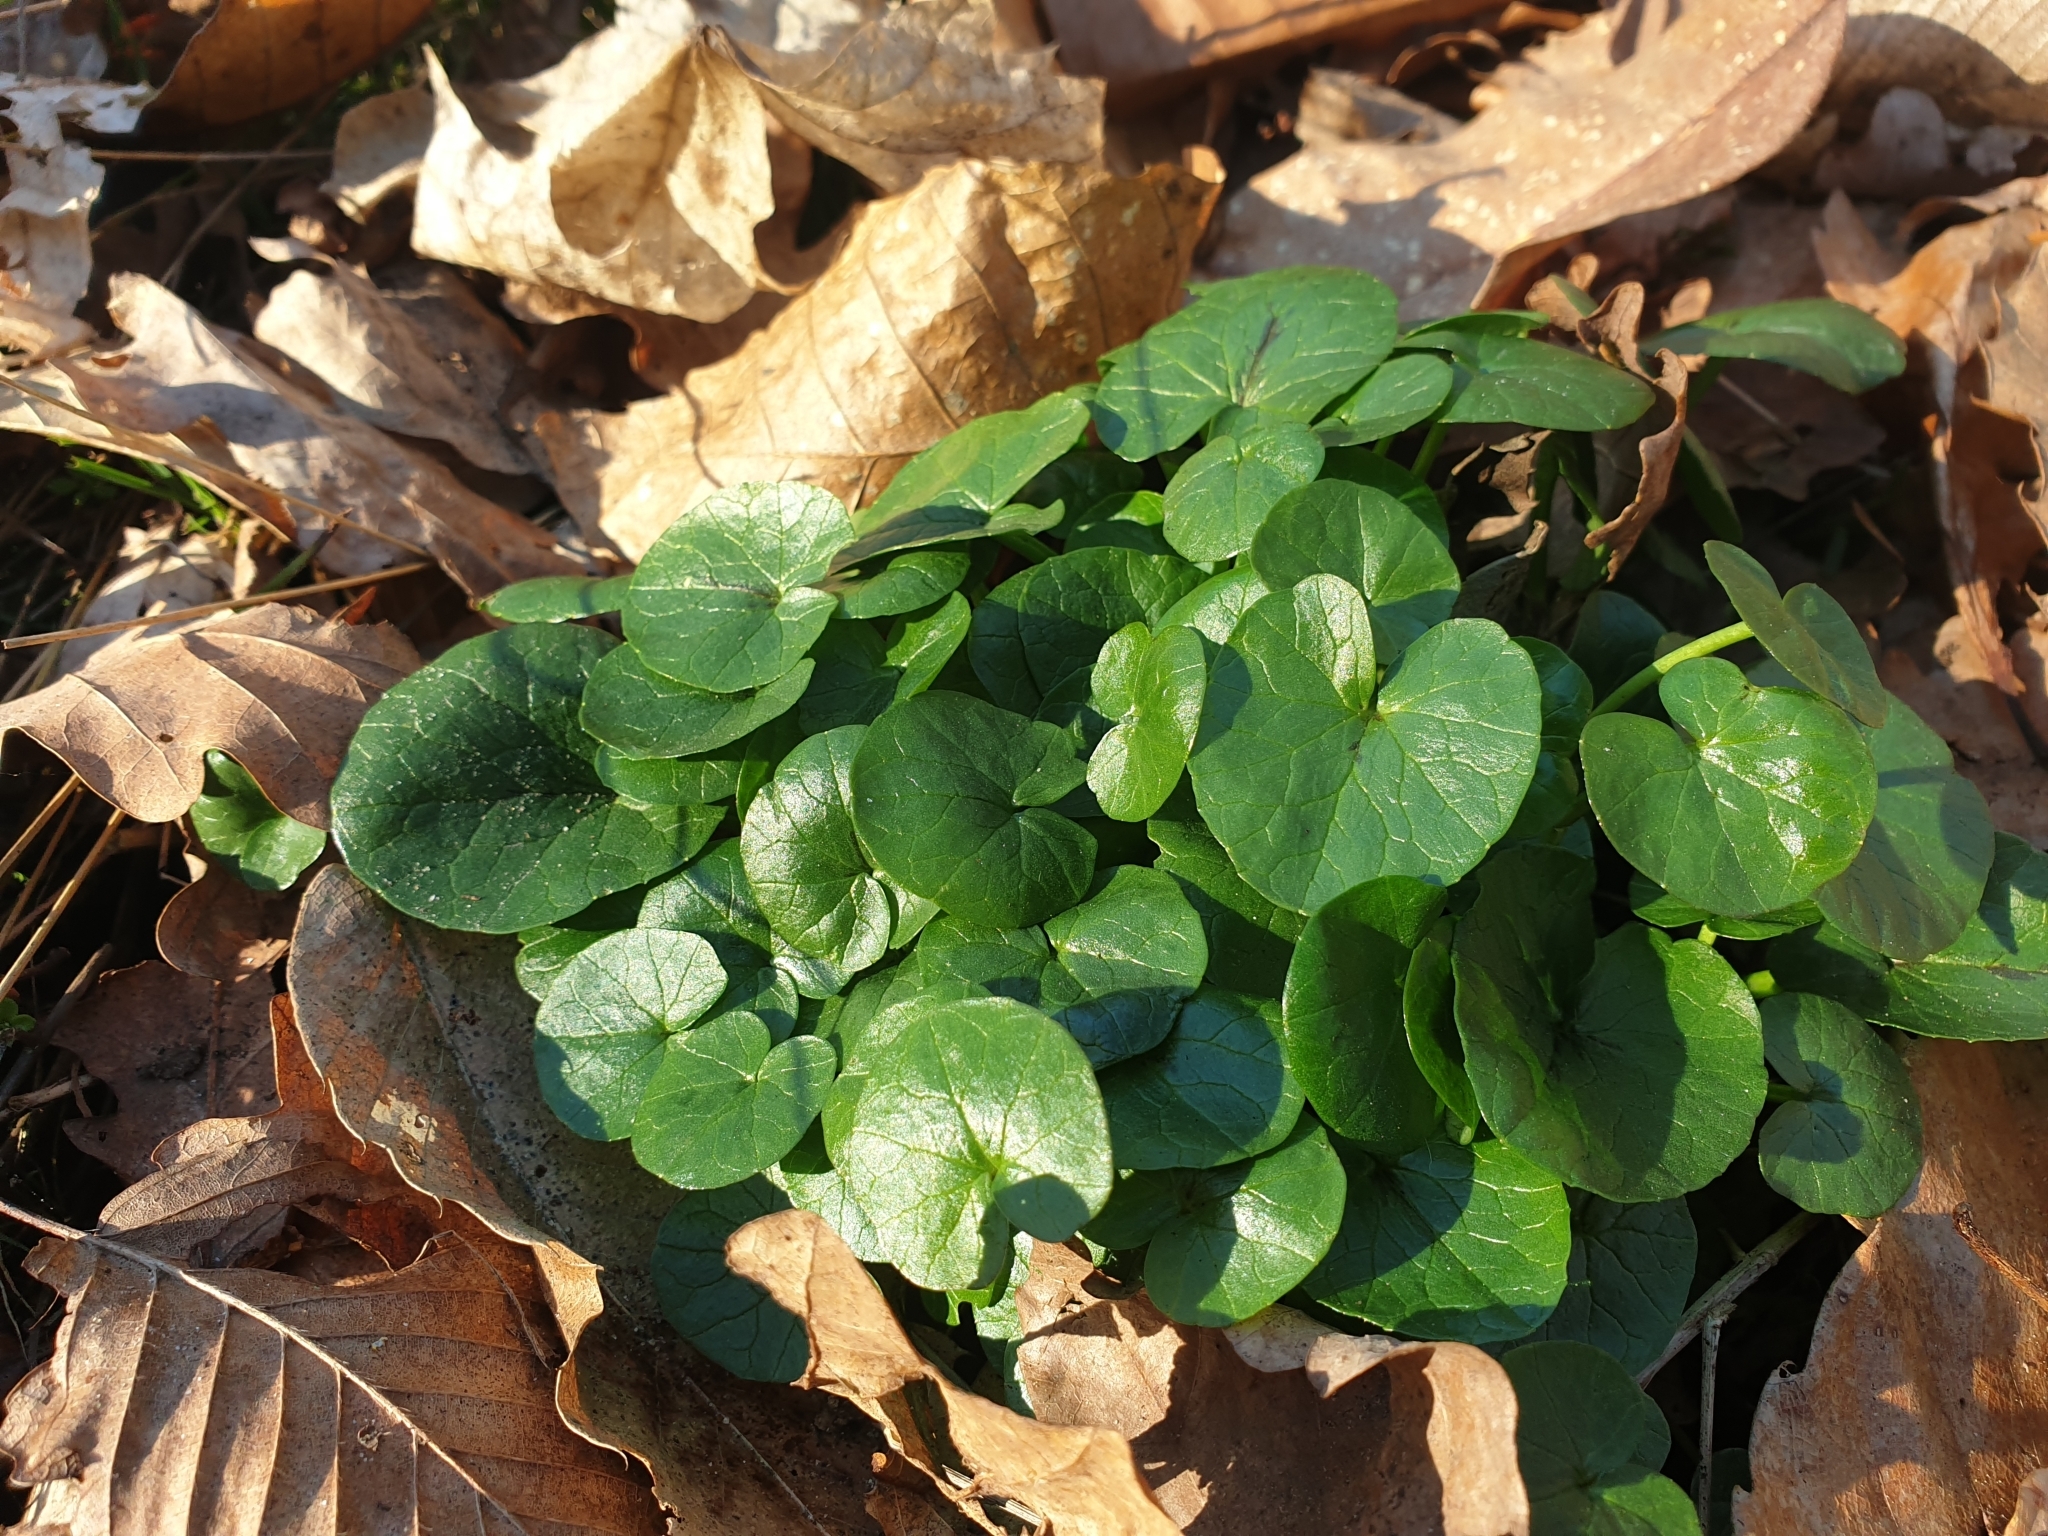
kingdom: Plantae
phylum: Tracheophyta
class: Magnoliopsida
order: Ranunculales
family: Ranunculaceae
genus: Ficaria
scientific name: Ficaria verna
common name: Lesser celandine
